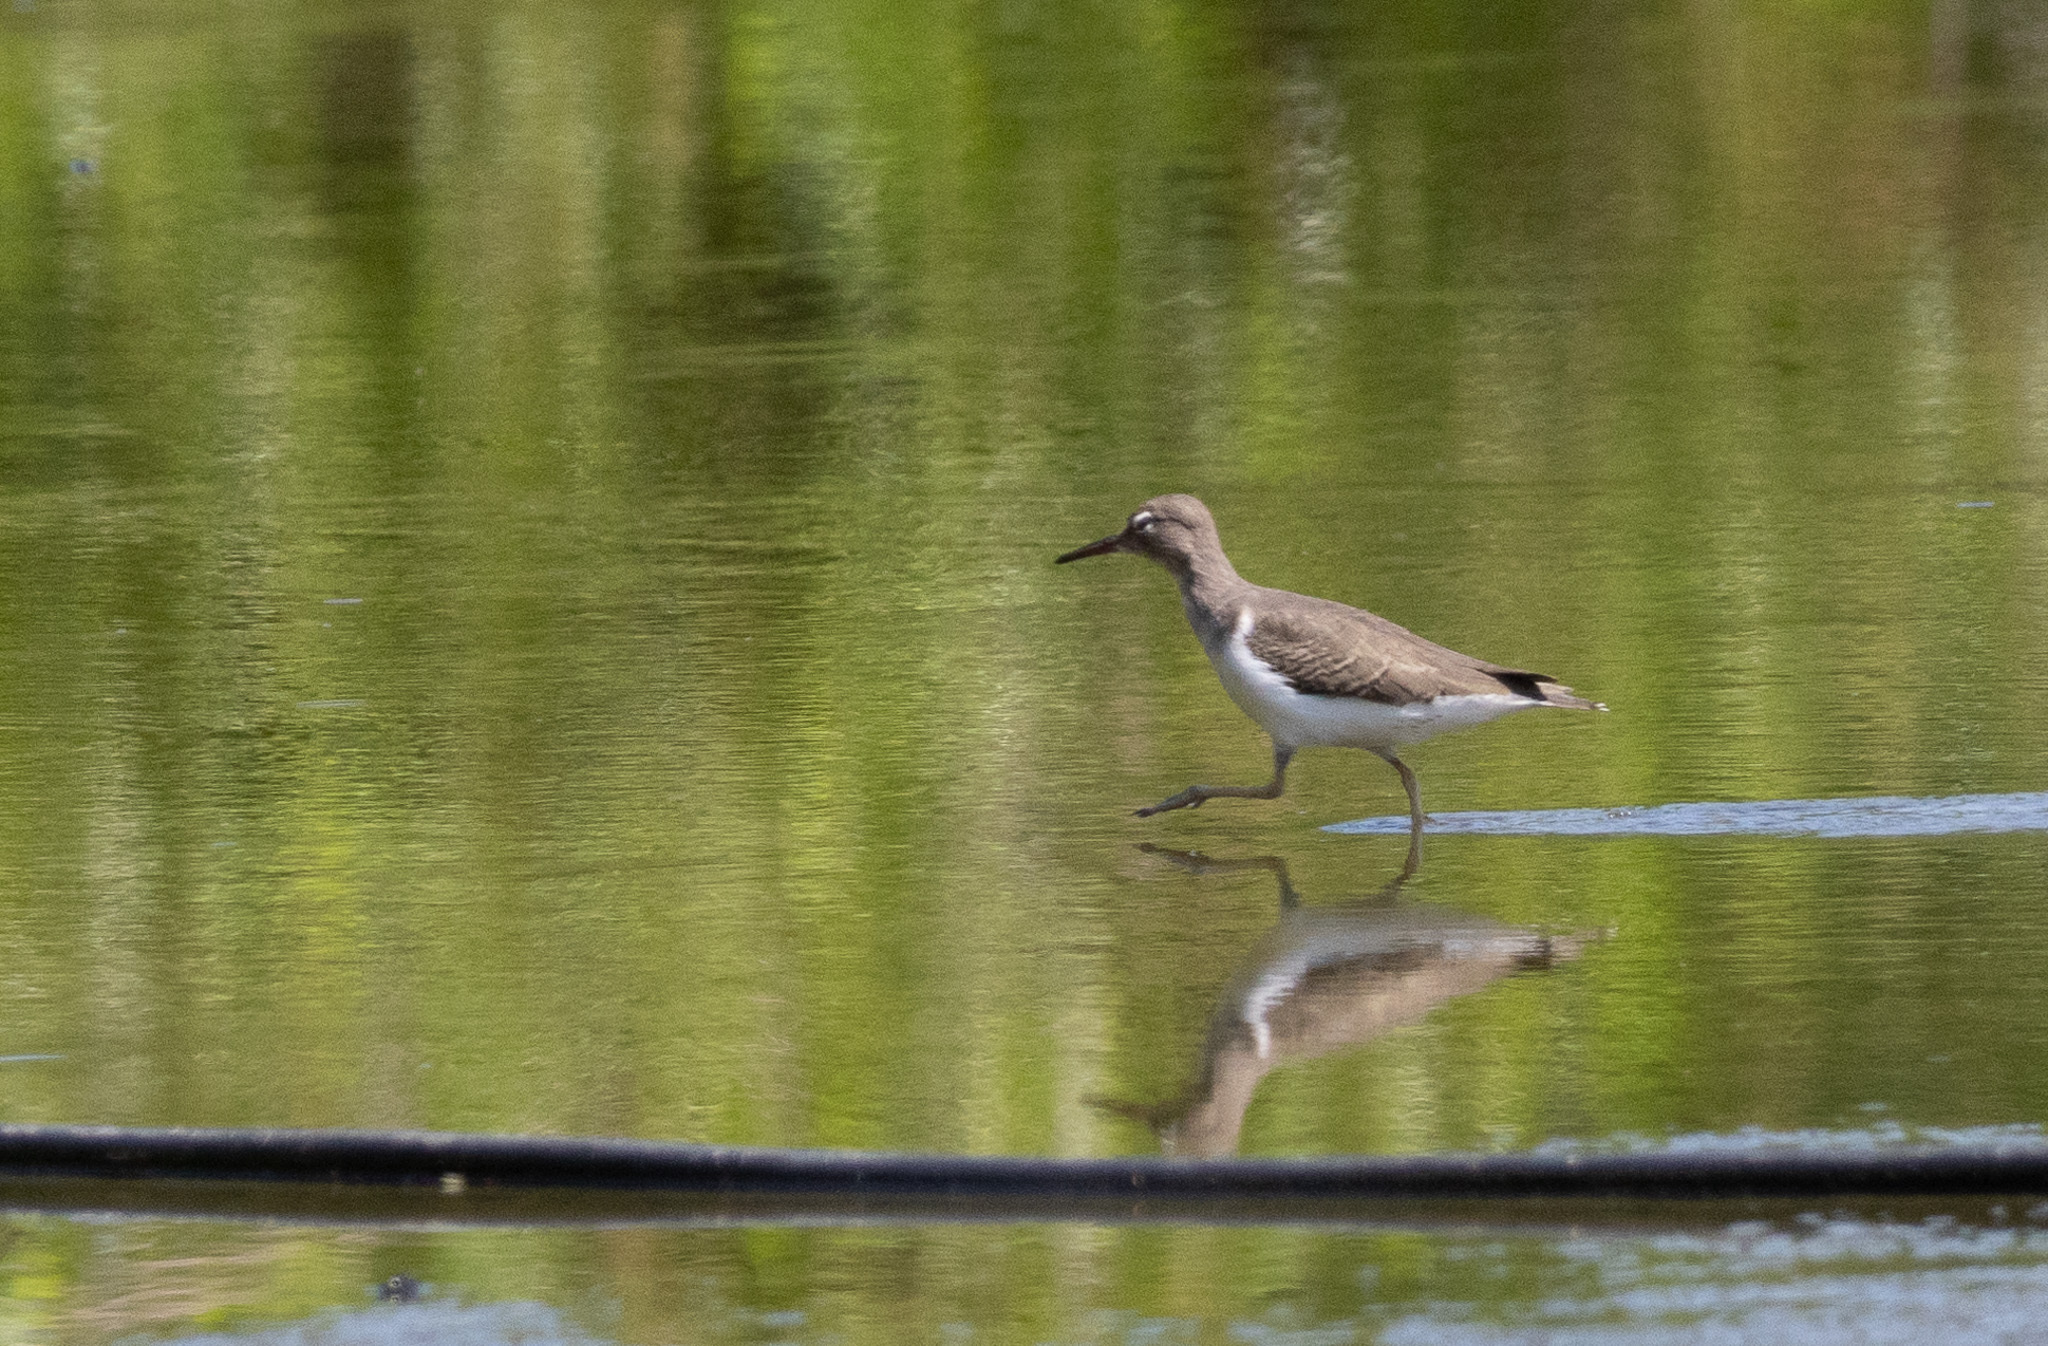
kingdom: Animalia
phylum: Chordata
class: Aves
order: Charadriiformes
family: Scolopacidae
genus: Actitis
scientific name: Actitis macularius
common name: Spotted sandpiper
